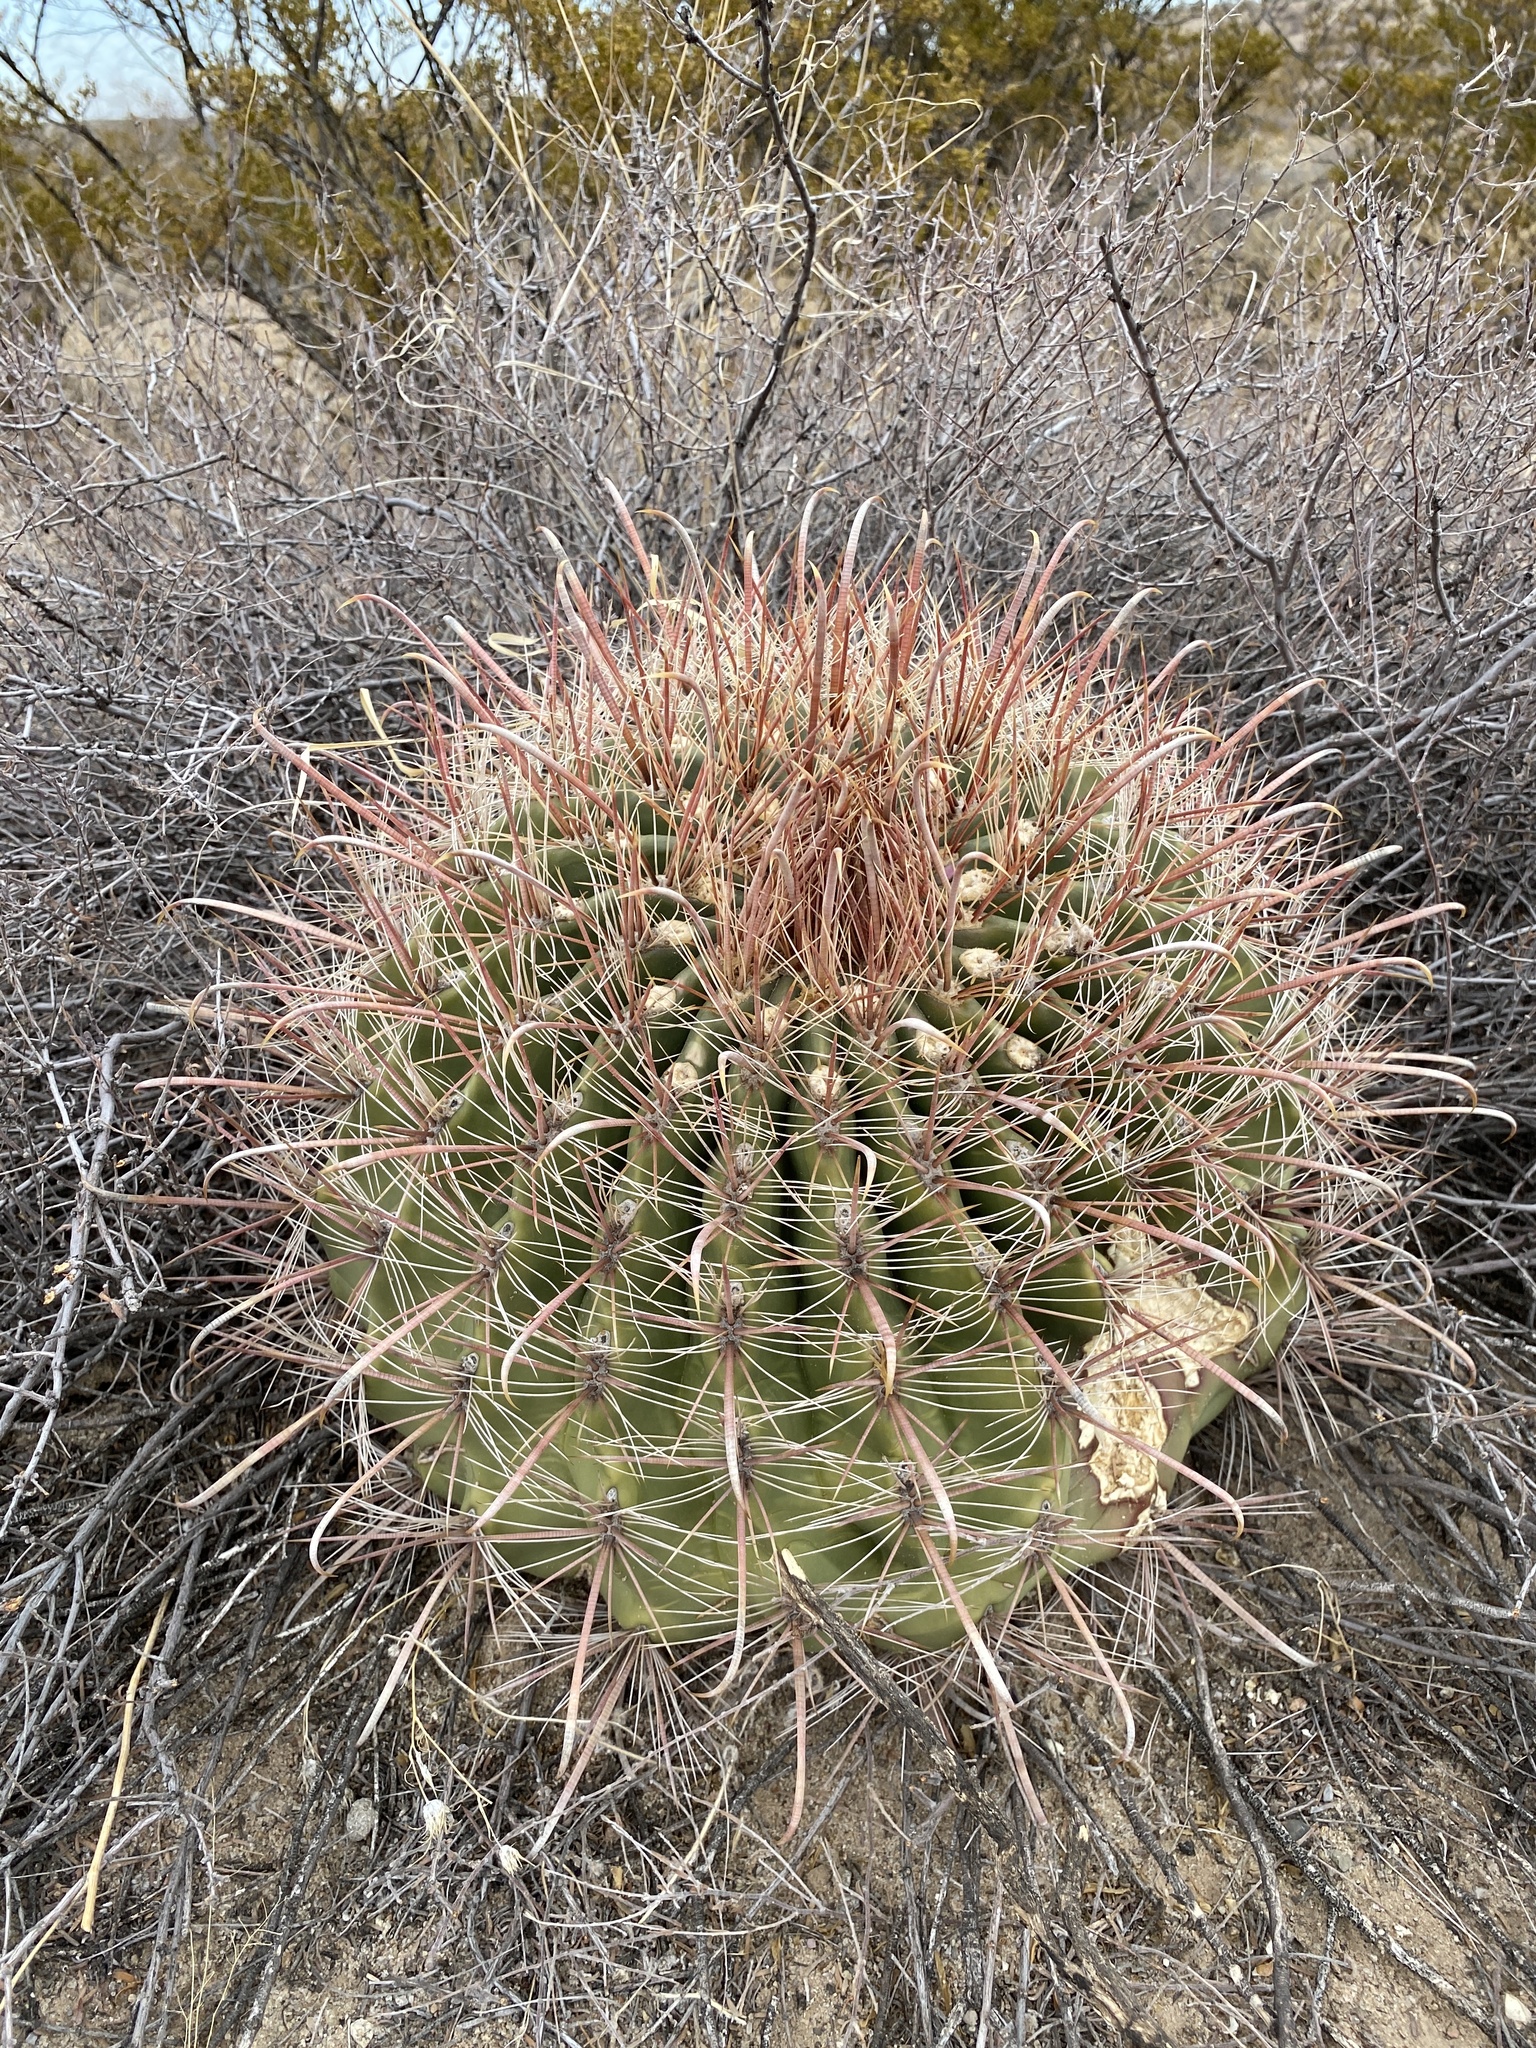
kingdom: Plantae
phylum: Tracheophyta
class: Magnoliopsida
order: Caryophyllales
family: Cactaceae
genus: Ferocactus
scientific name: Ferocactus wislizeni
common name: Candy barrel cactus
